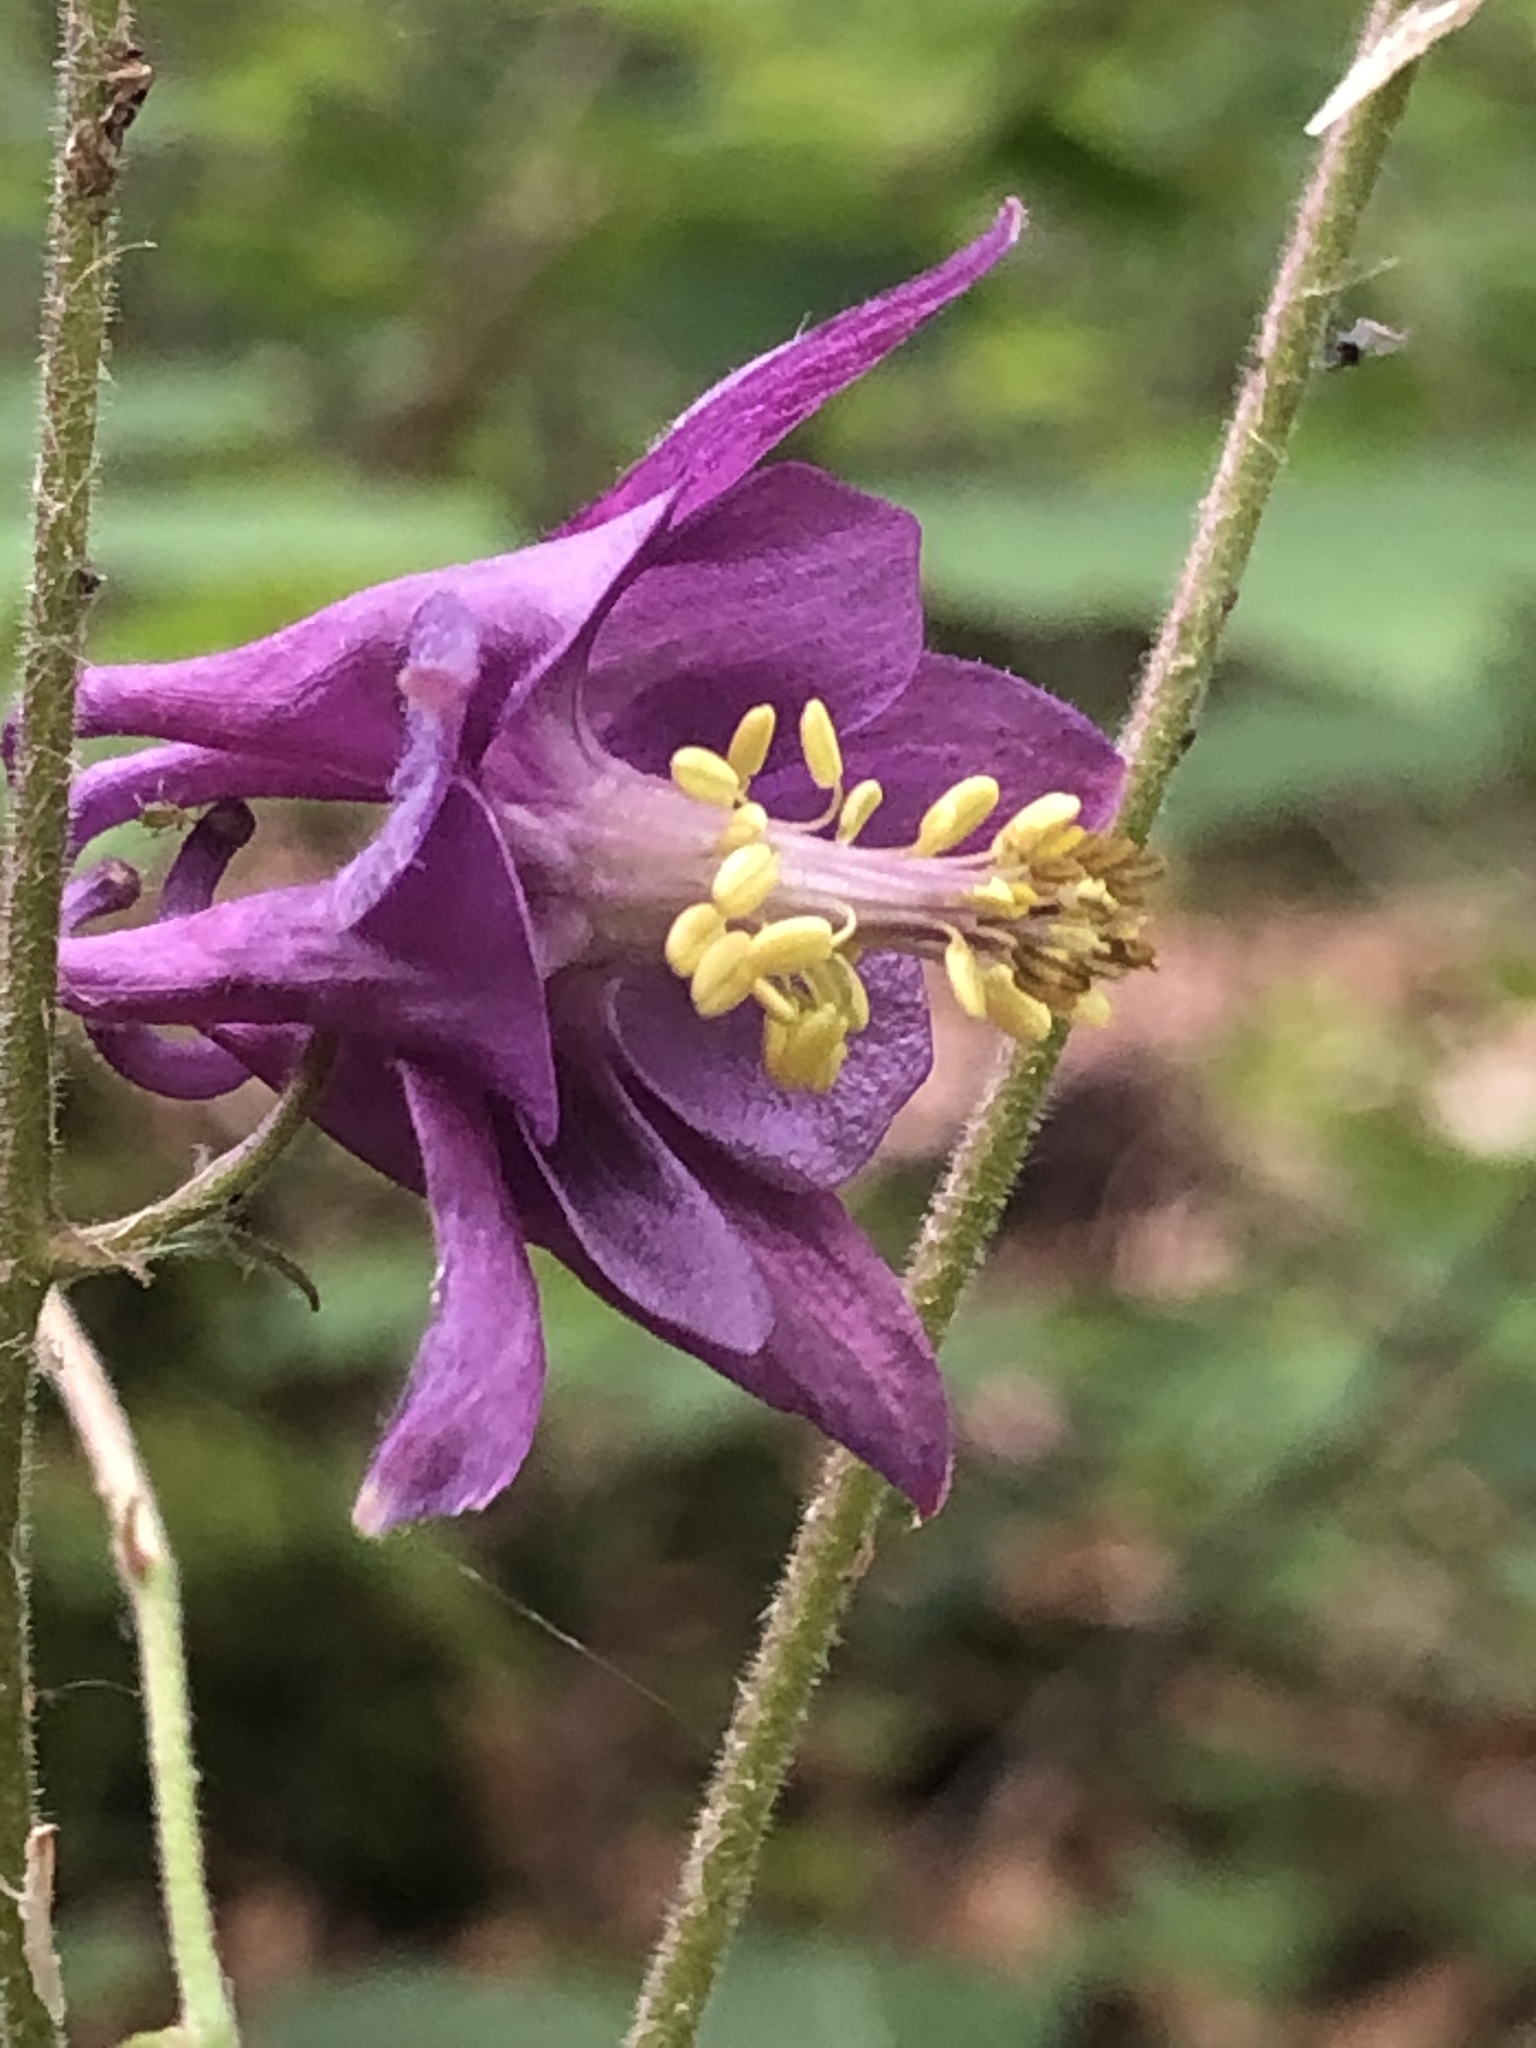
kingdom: Plantae
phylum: Tracheophyta
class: Magnoliopsida
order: Ranunculales
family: Ranunculaceae
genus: Aquilegia
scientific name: Aquilegia atrata
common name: Dark columbine
